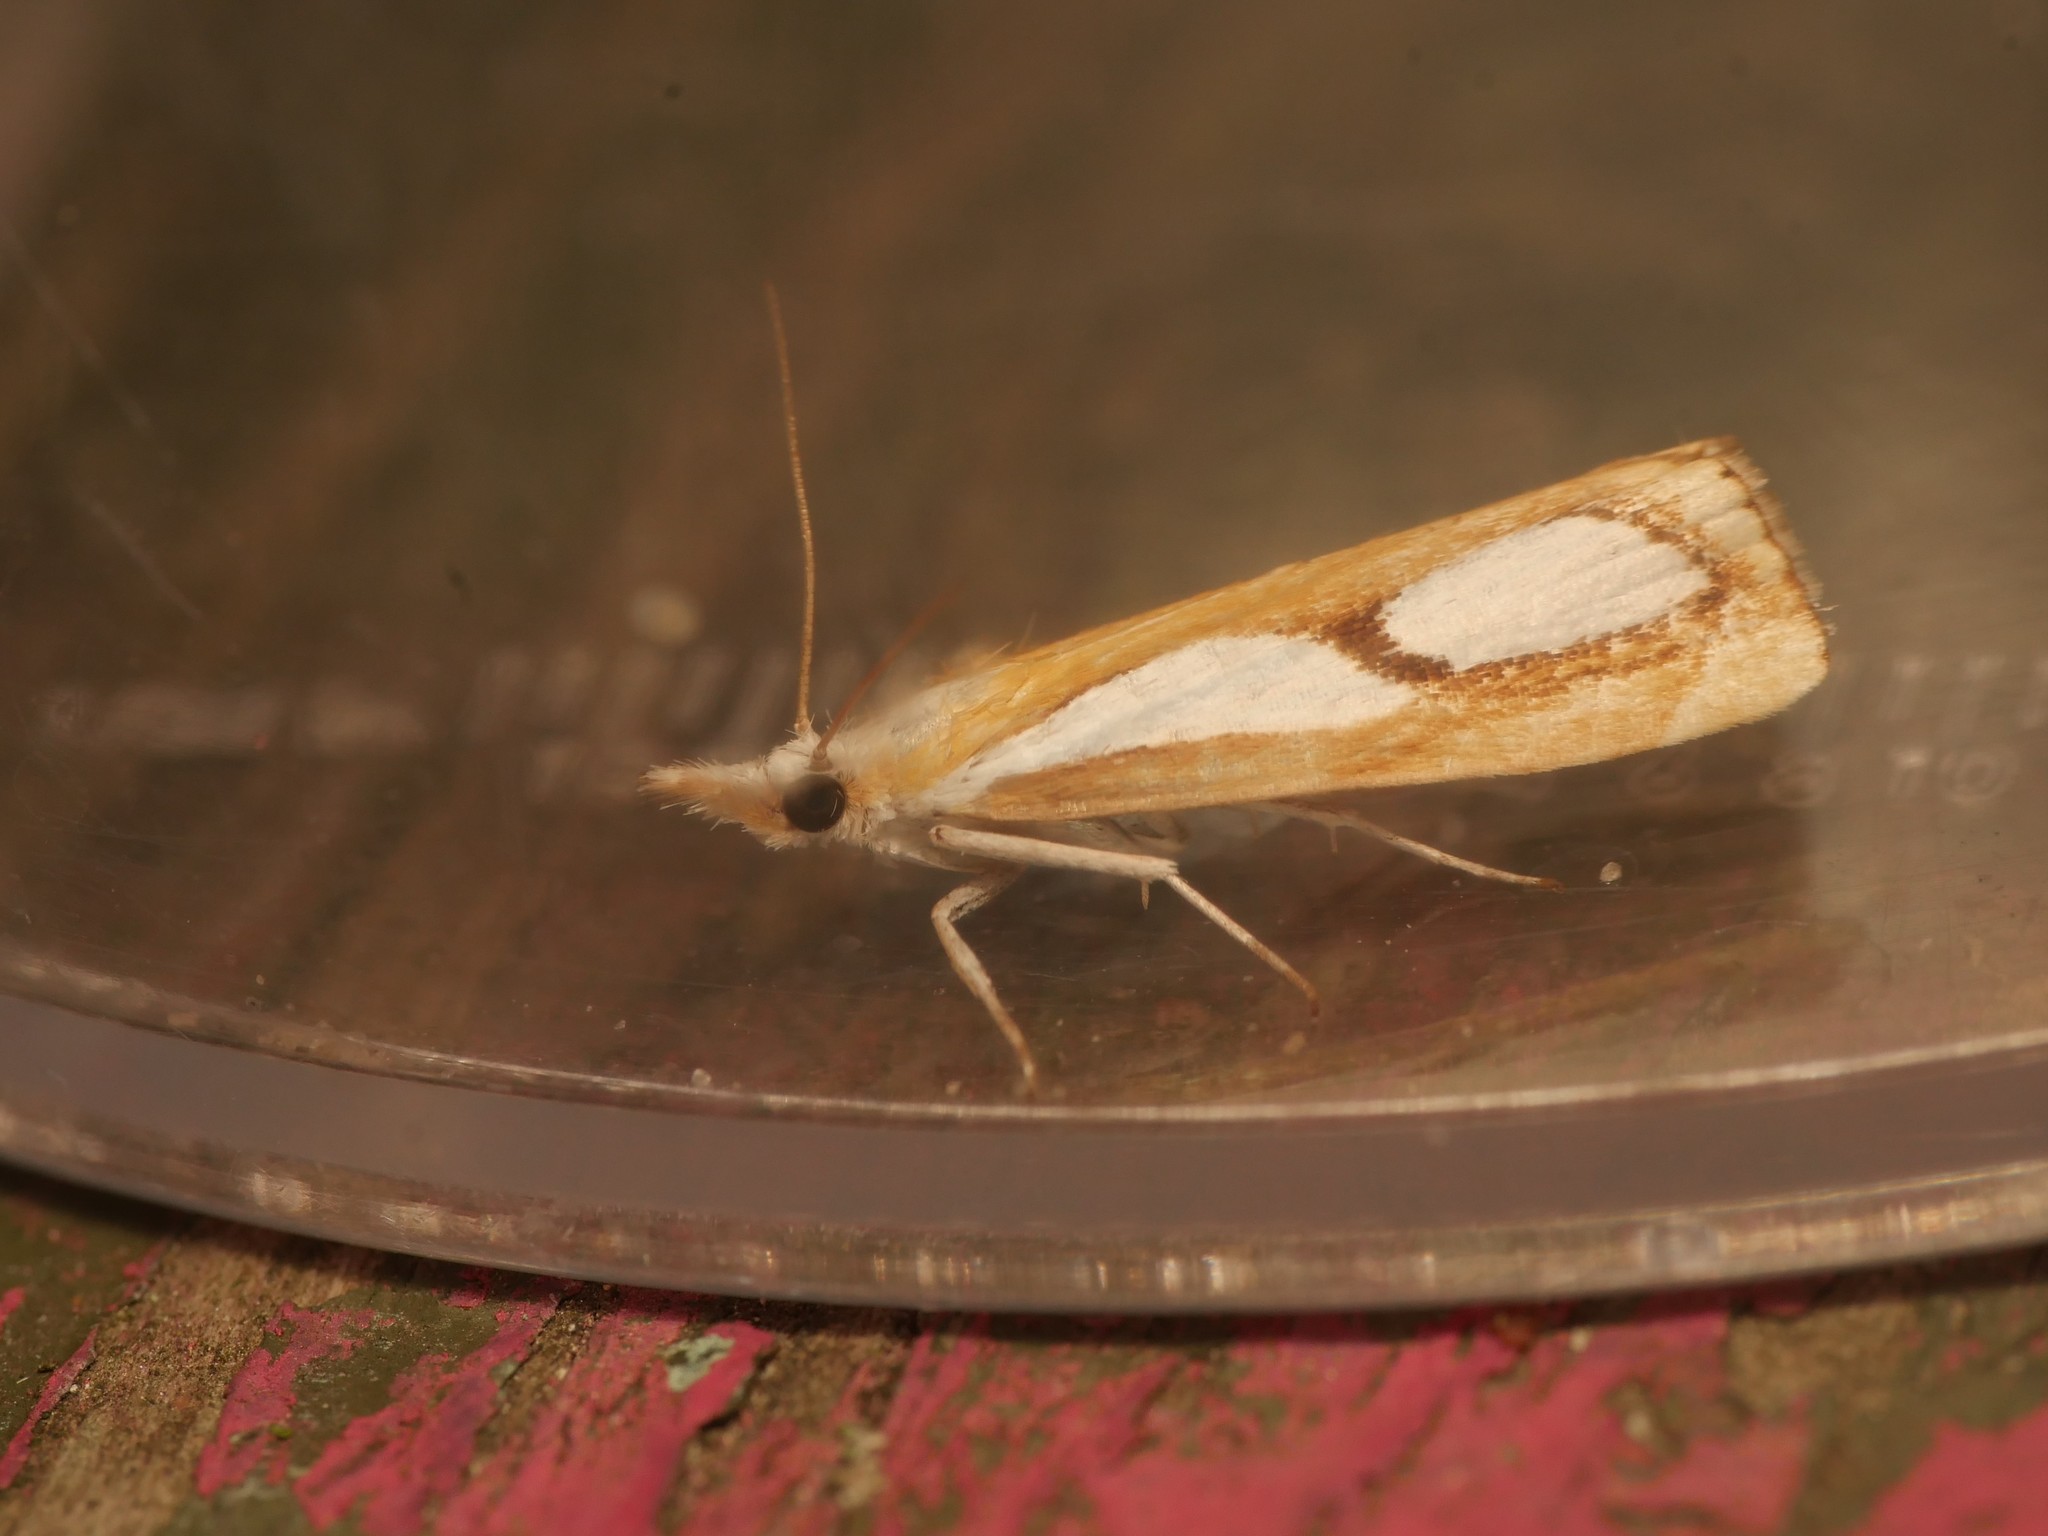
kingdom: Animalia
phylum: Arthropoda
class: Insecta
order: Lepidoptera
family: Crambidae
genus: Catoptria
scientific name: Catoptria pinella
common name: Pearl grass-veneer
